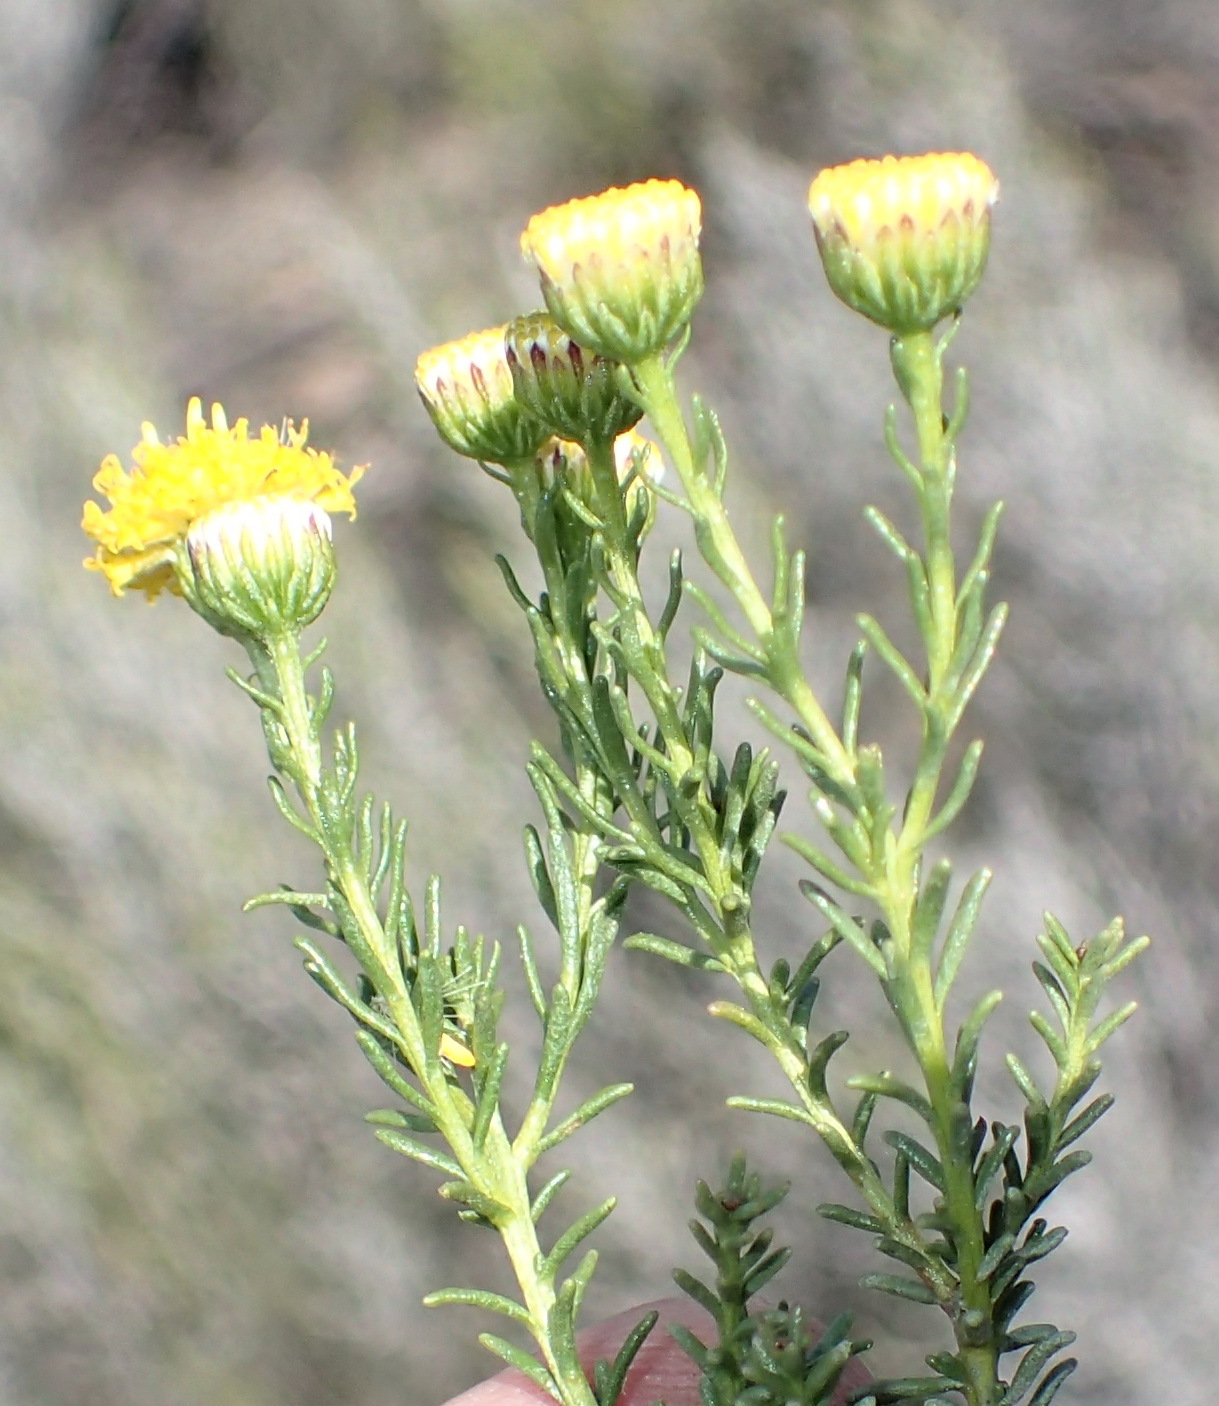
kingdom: Plantae
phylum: Tracheophyta
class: Magnoliopsida
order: Asterales
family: Asteraceae
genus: Chrysocoma
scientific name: Chrysocoma ciliata
